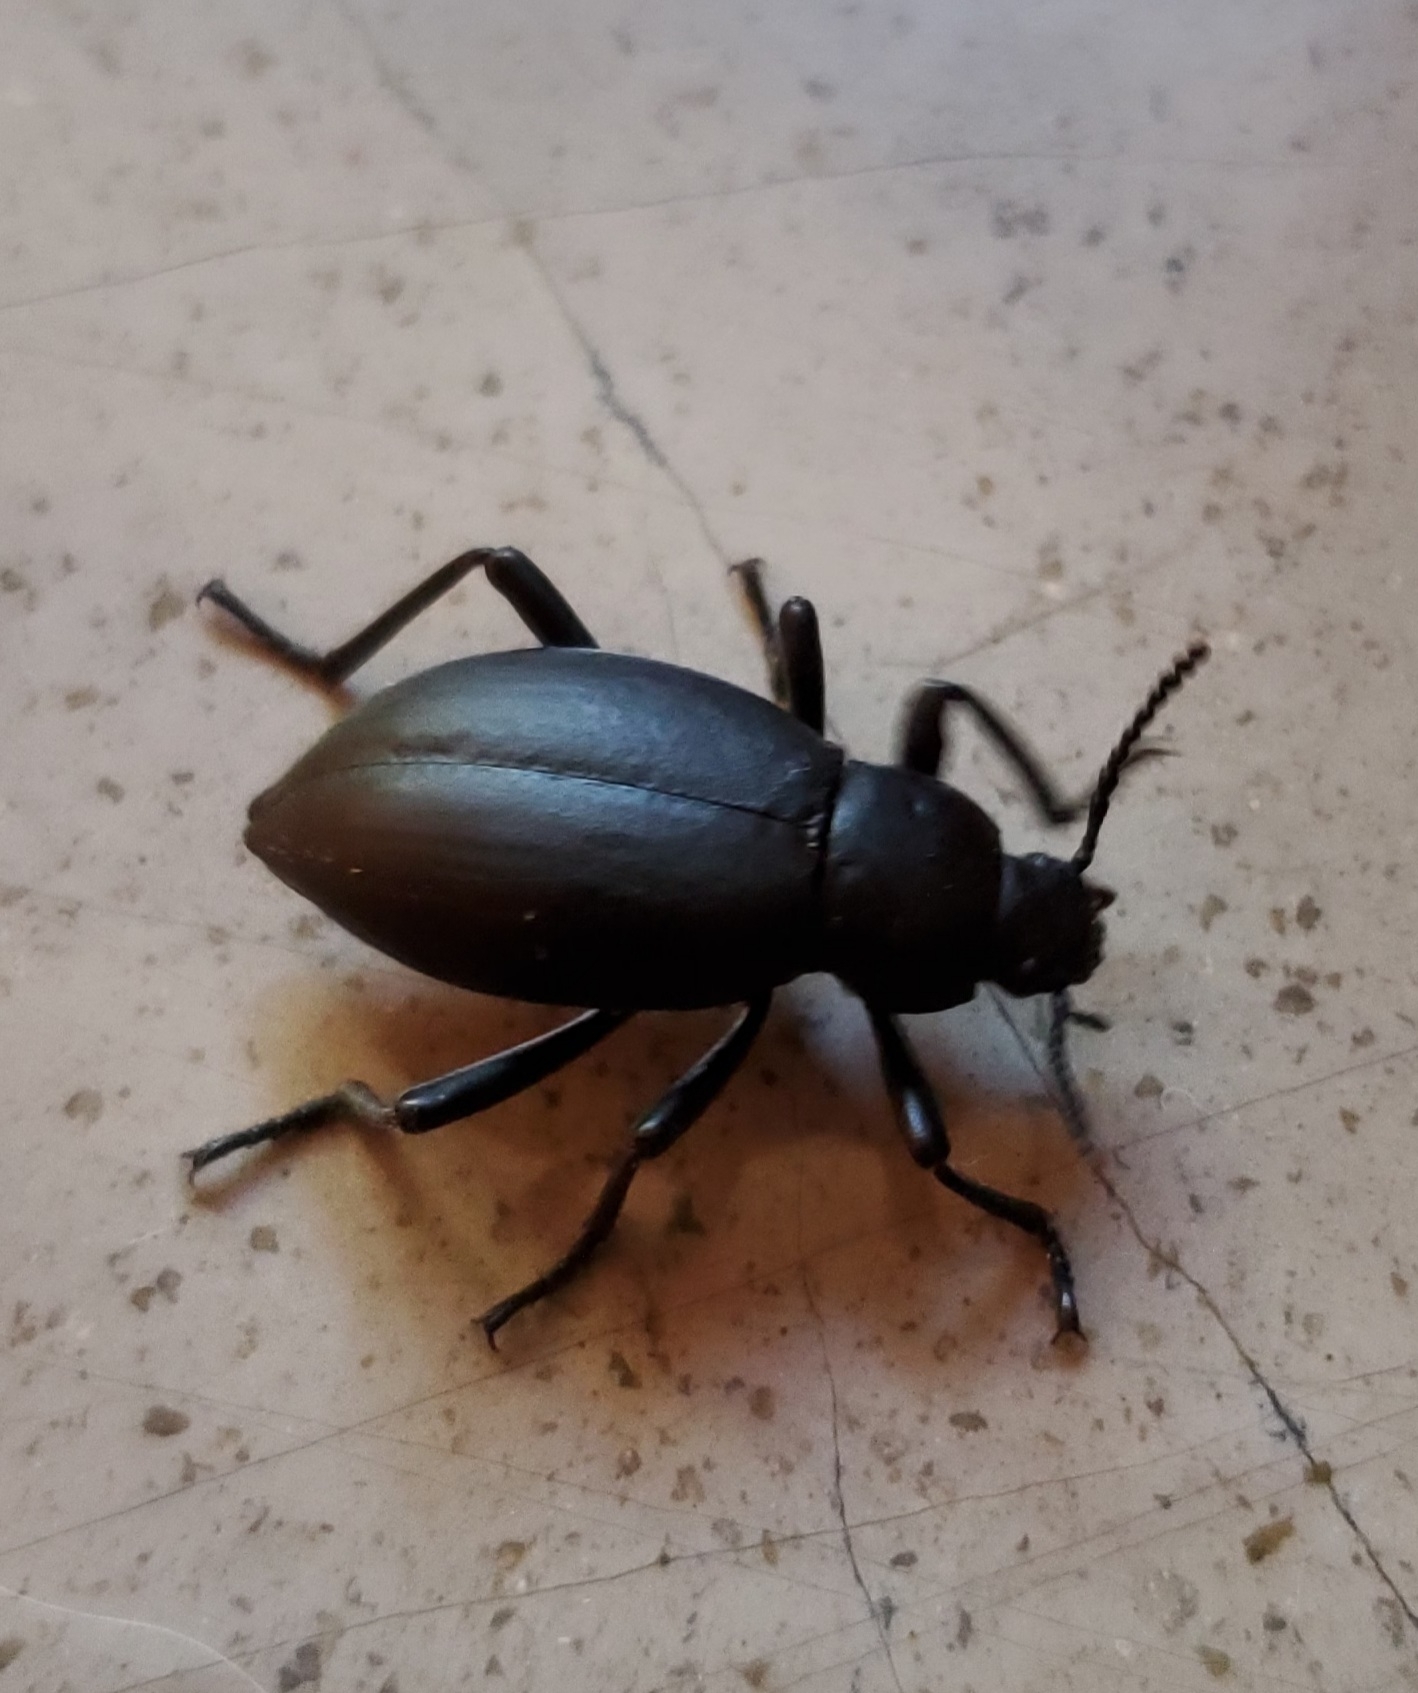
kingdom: Animalia
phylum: Arthropoda
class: Insecta
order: Coleoptera
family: Tenebrionidae
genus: Eleodes
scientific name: Eleodes spinolae
